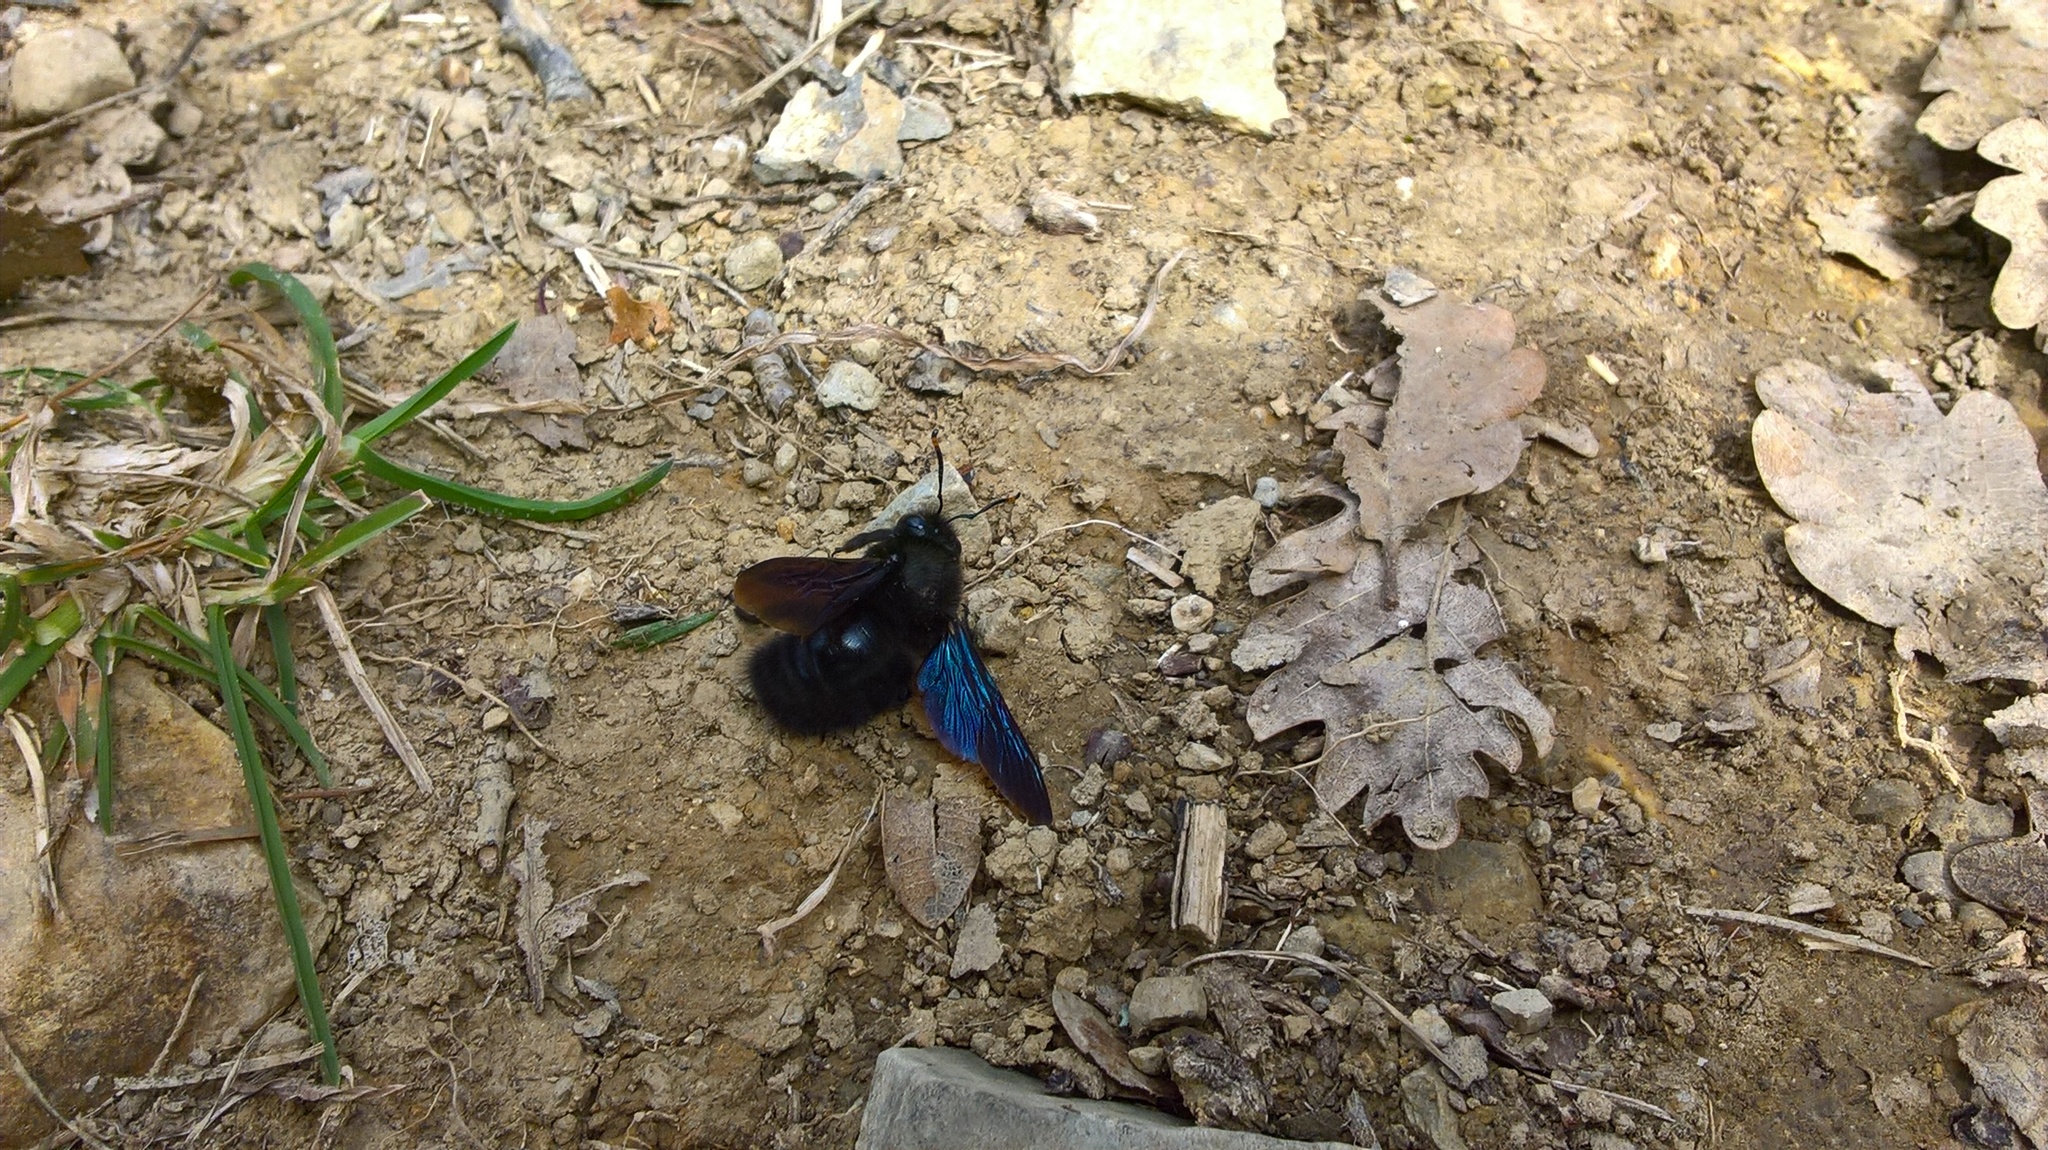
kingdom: Animalia
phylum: Arthropoda
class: Insecta
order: Hymenoptera
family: Apidae
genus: Xylocopa
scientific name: Xylocopa violacea
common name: Violet carpenter bee
